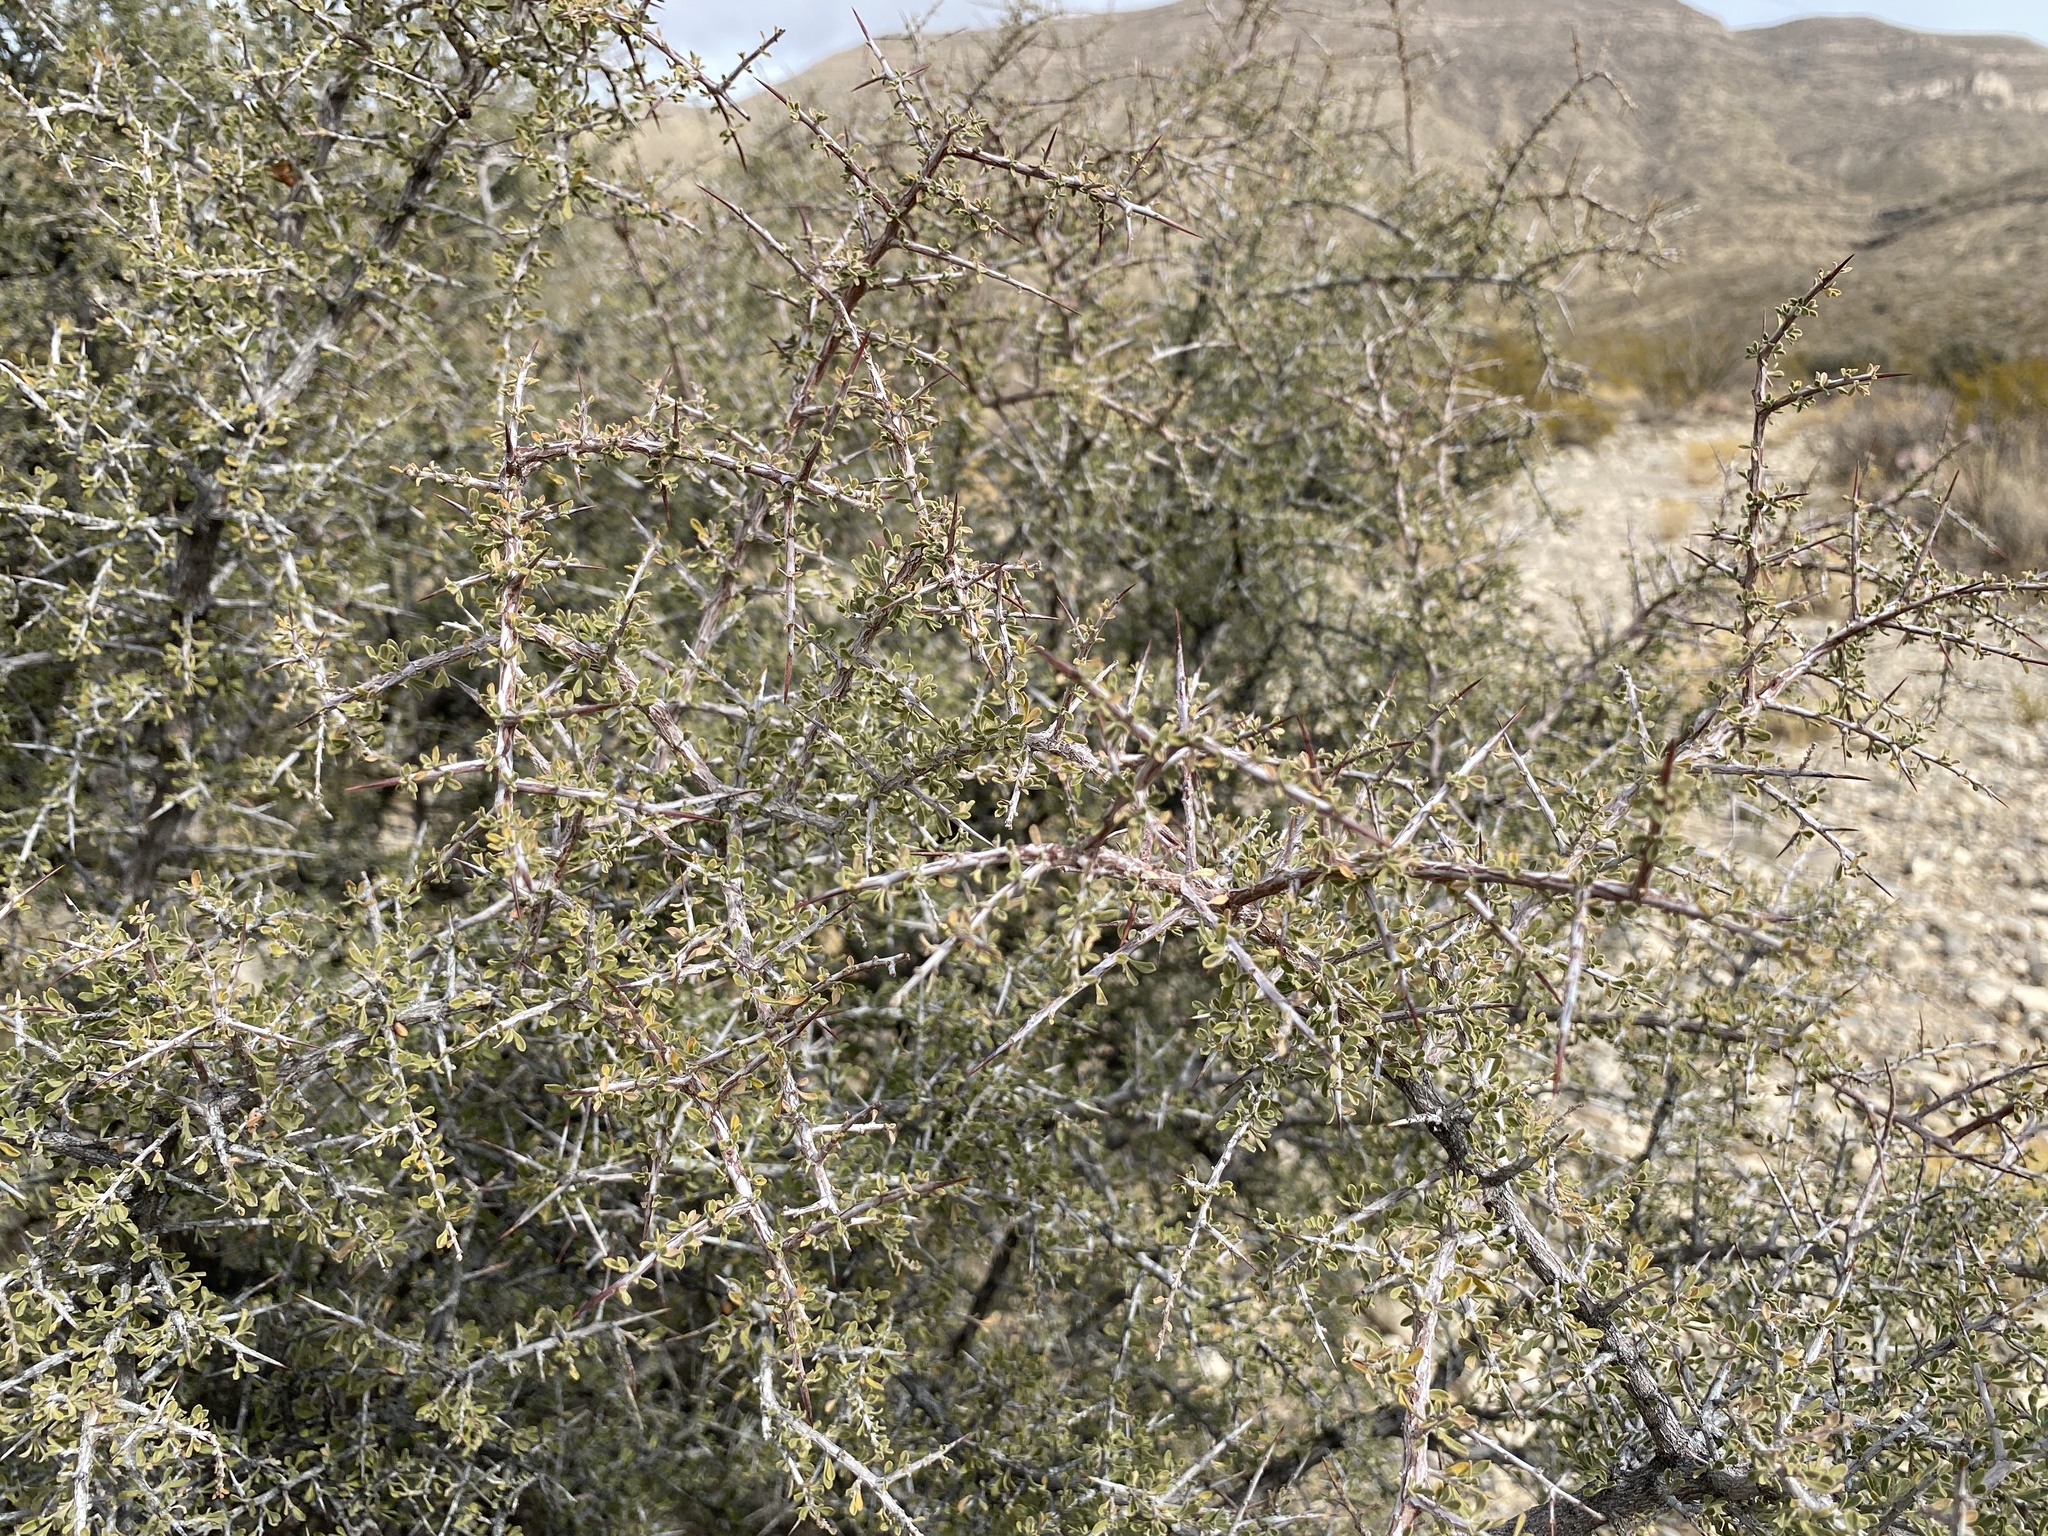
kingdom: Plantae
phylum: Tracheophyta
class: Magnoliopsida
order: Rosales
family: Rhamnaceae
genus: Condalia
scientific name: Condalia warnockii
